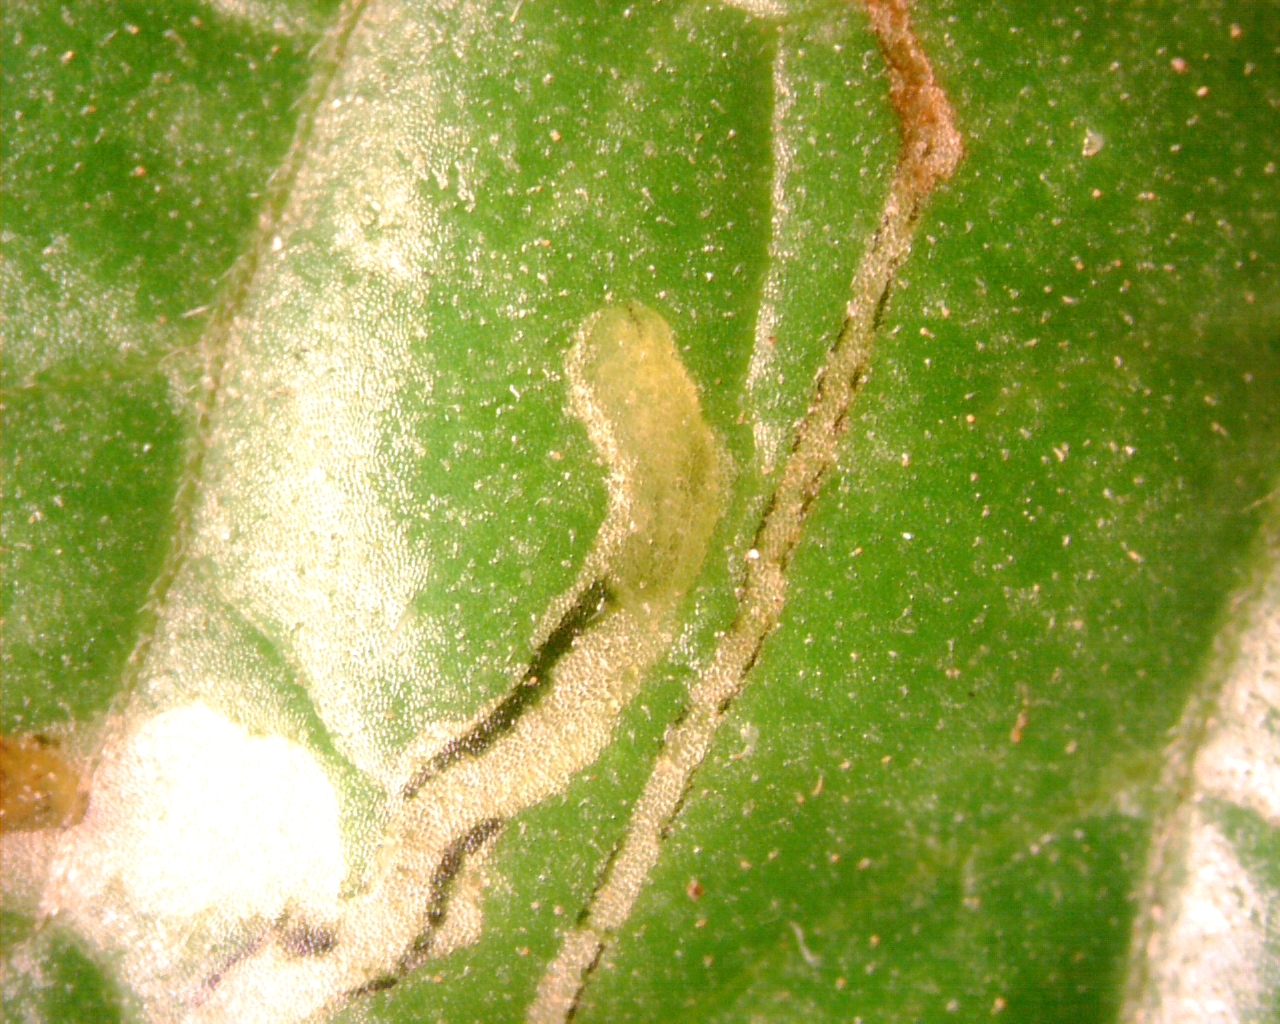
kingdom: Animalia
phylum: Arthropoda
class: Insecta
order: Diptera
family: Agromyzidae
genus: Liriomyza
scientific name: Liriomyza bryoniae
